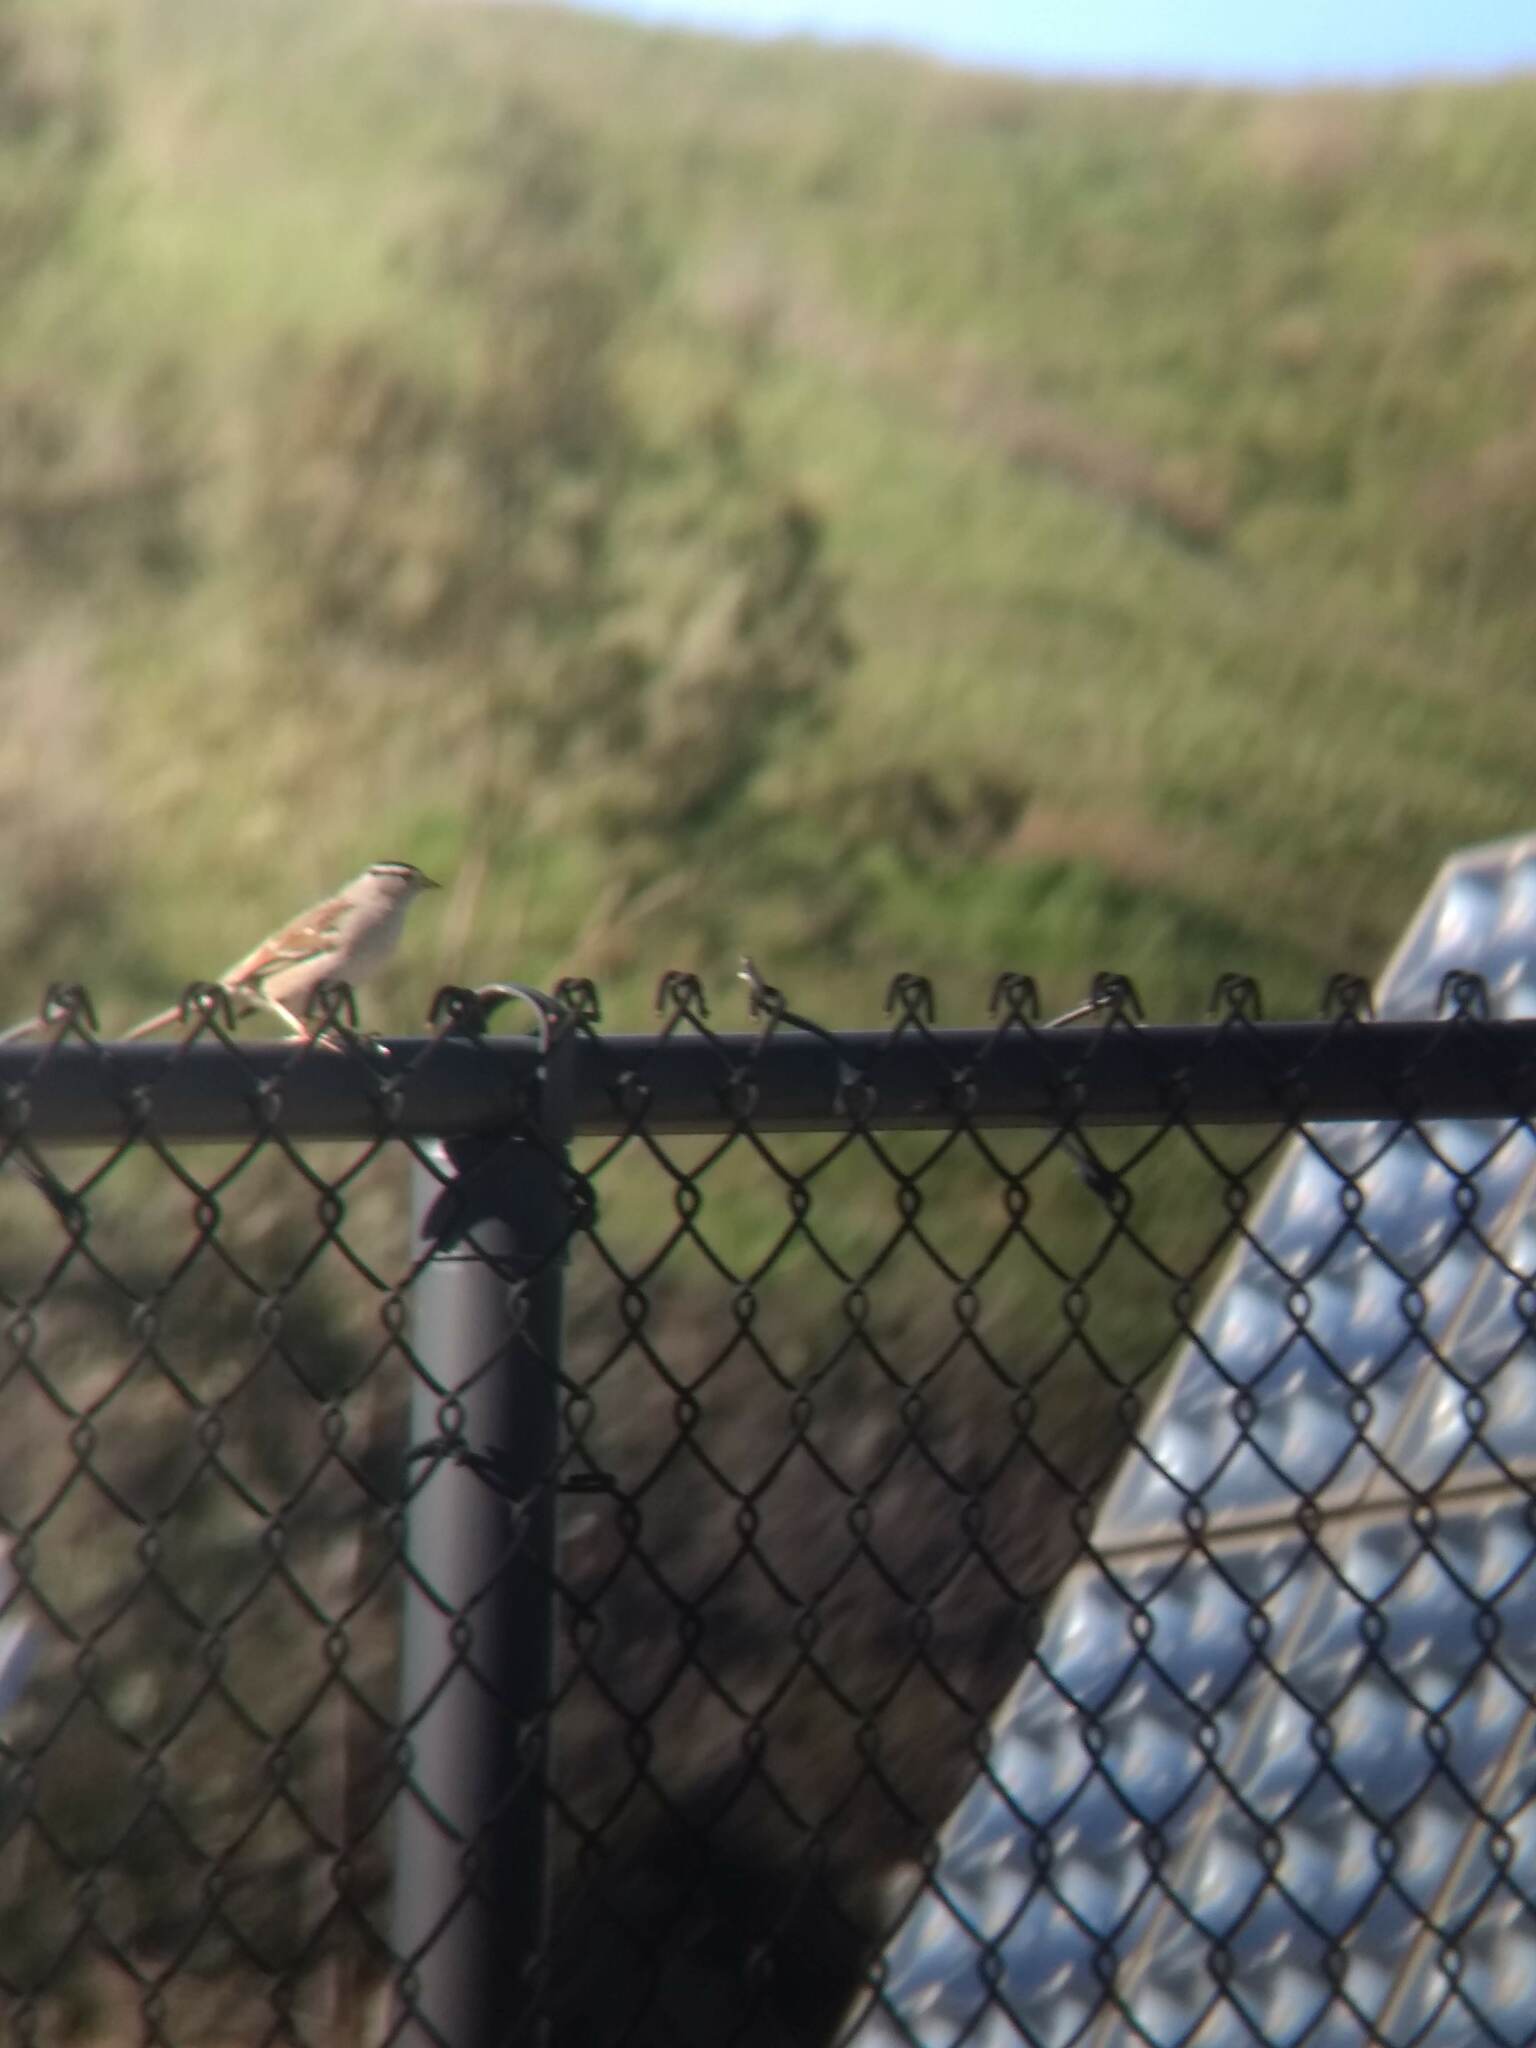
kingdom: Animalia
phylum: Chordata
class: Aves
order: Passeriformes
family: Passerellidae
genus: Zonotrichia
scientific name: Zonotrichia leucophrys
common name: White-crowned sparrow
